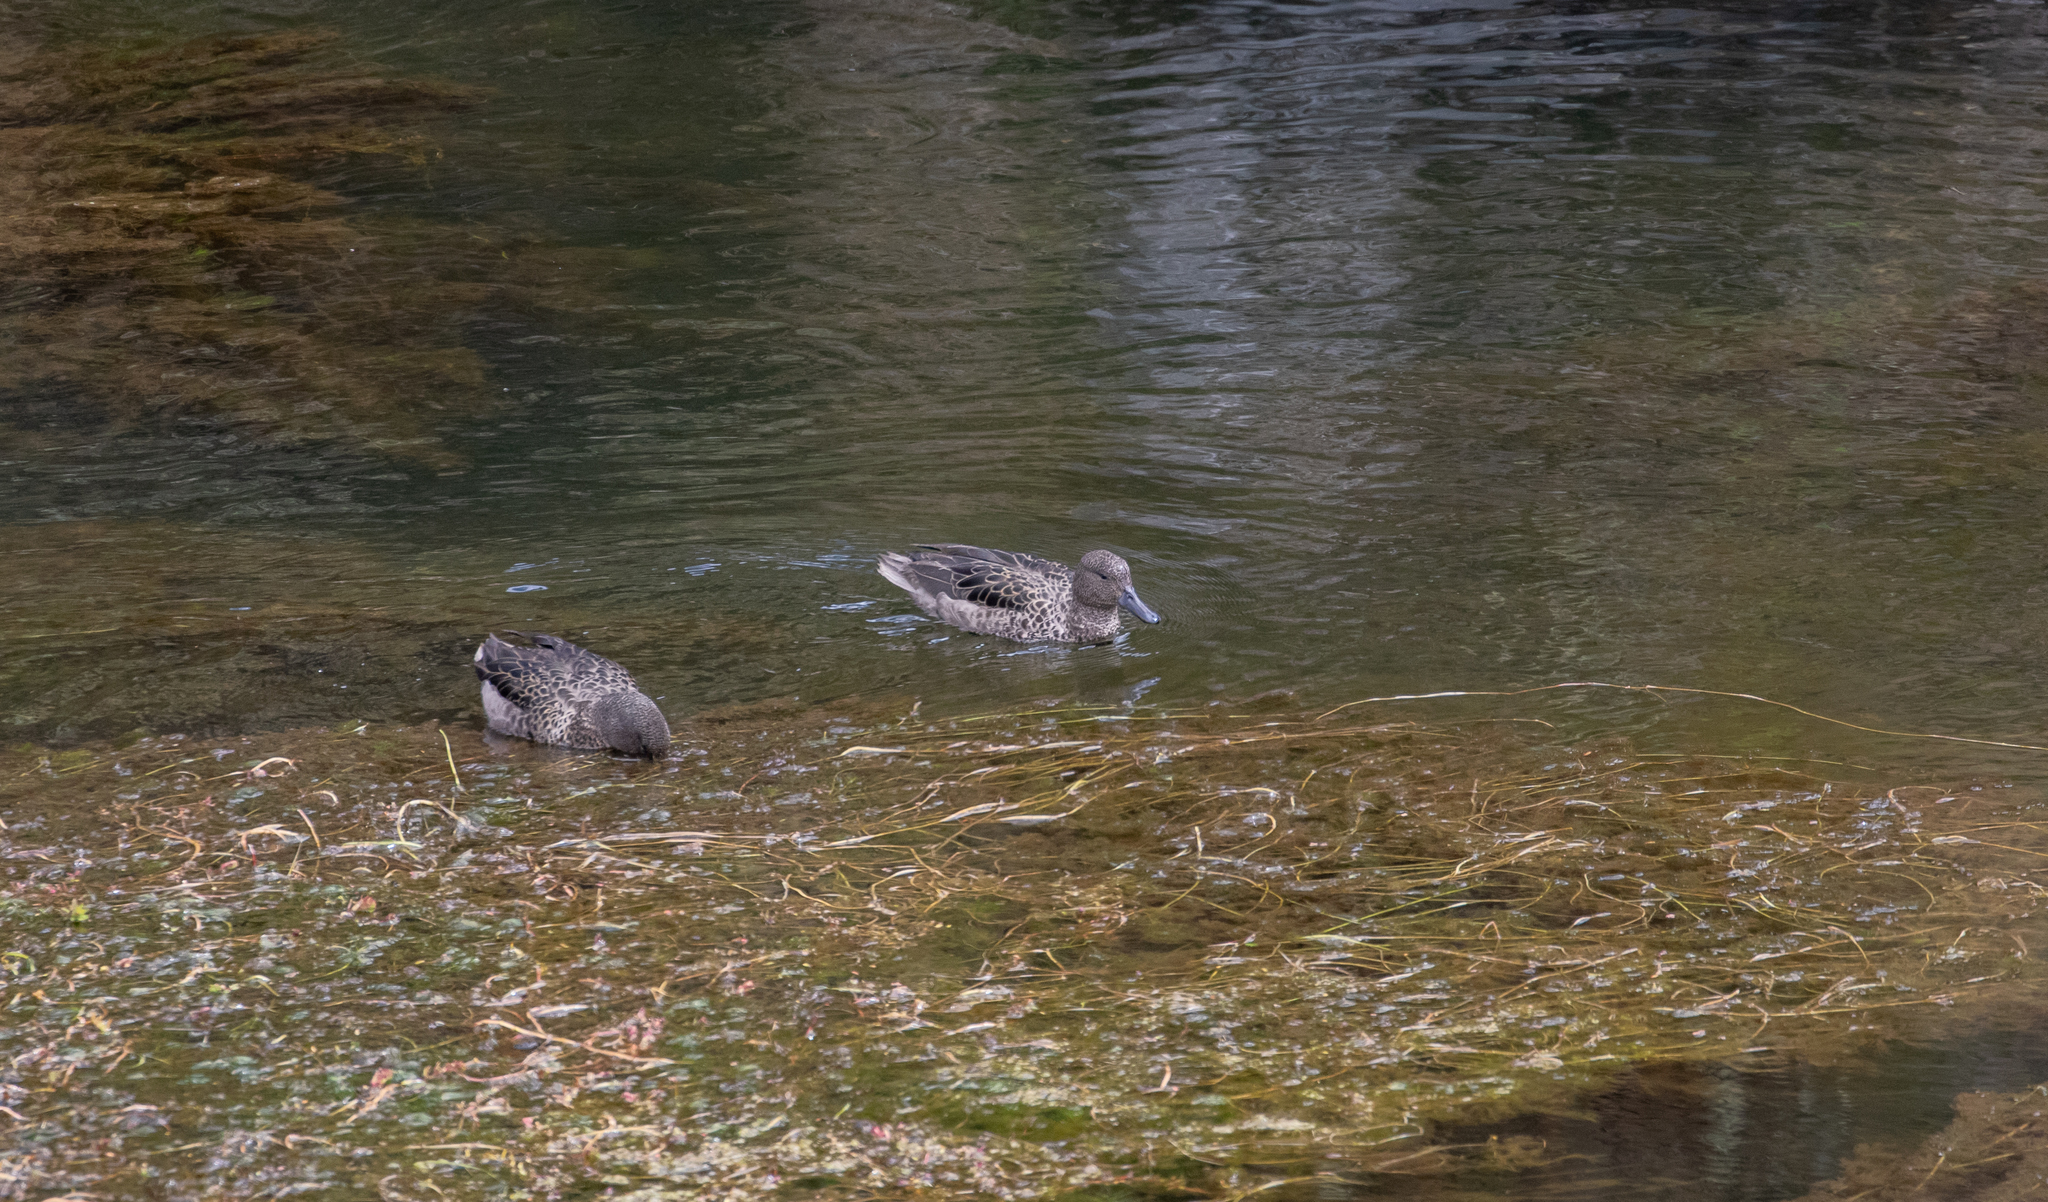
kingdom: Animalia
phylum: Chordata
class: Aves
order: Anseriformes
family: Anatidae
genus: Anas
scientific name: Anas andium
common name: Andean teal
